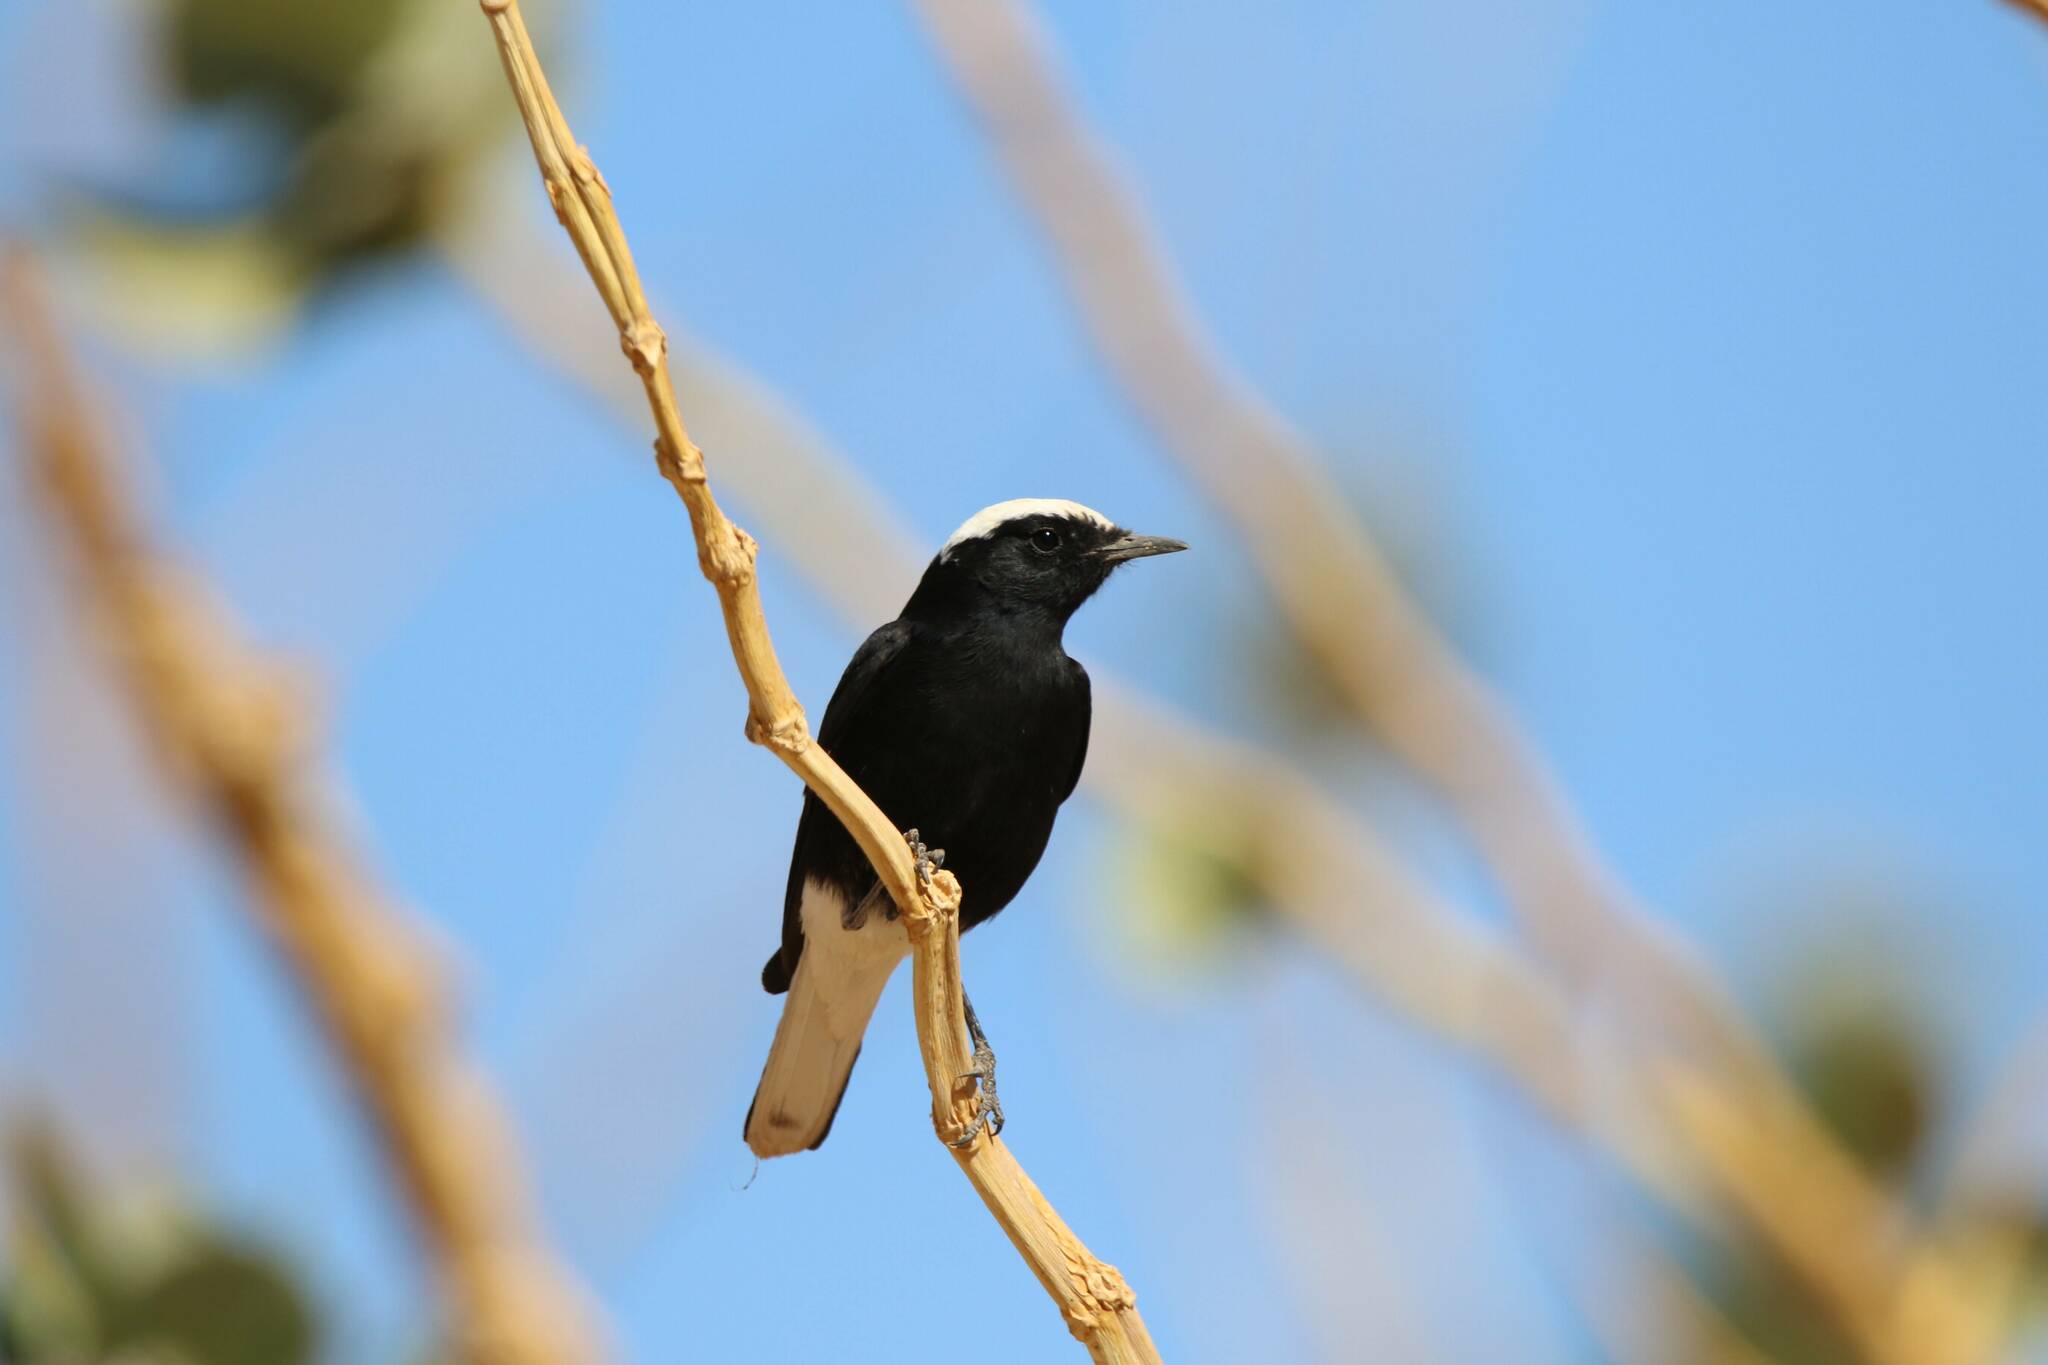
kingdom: Animalia
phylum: Chordata
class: Aves
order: Passeriformes
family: Muscicapidae
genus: Oenanthe
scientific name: Oenanthe leucopyga
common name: White-crowned wheatear
